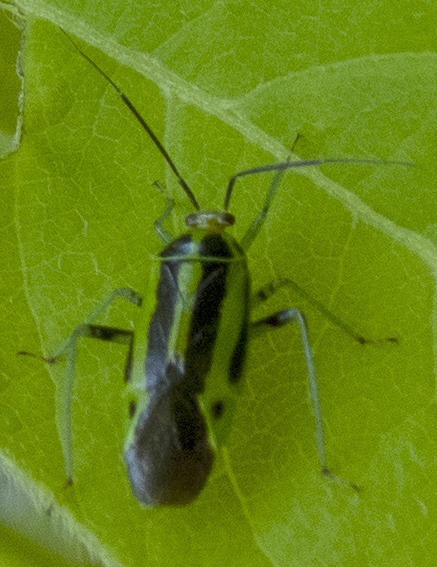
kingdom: Animalia
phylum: Arthropoda
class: Insecta
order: Hemiptera
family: Miridae
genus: Poecilocapsus
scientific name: Poecilocapsus lineatus
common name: Four-lined plant bug
